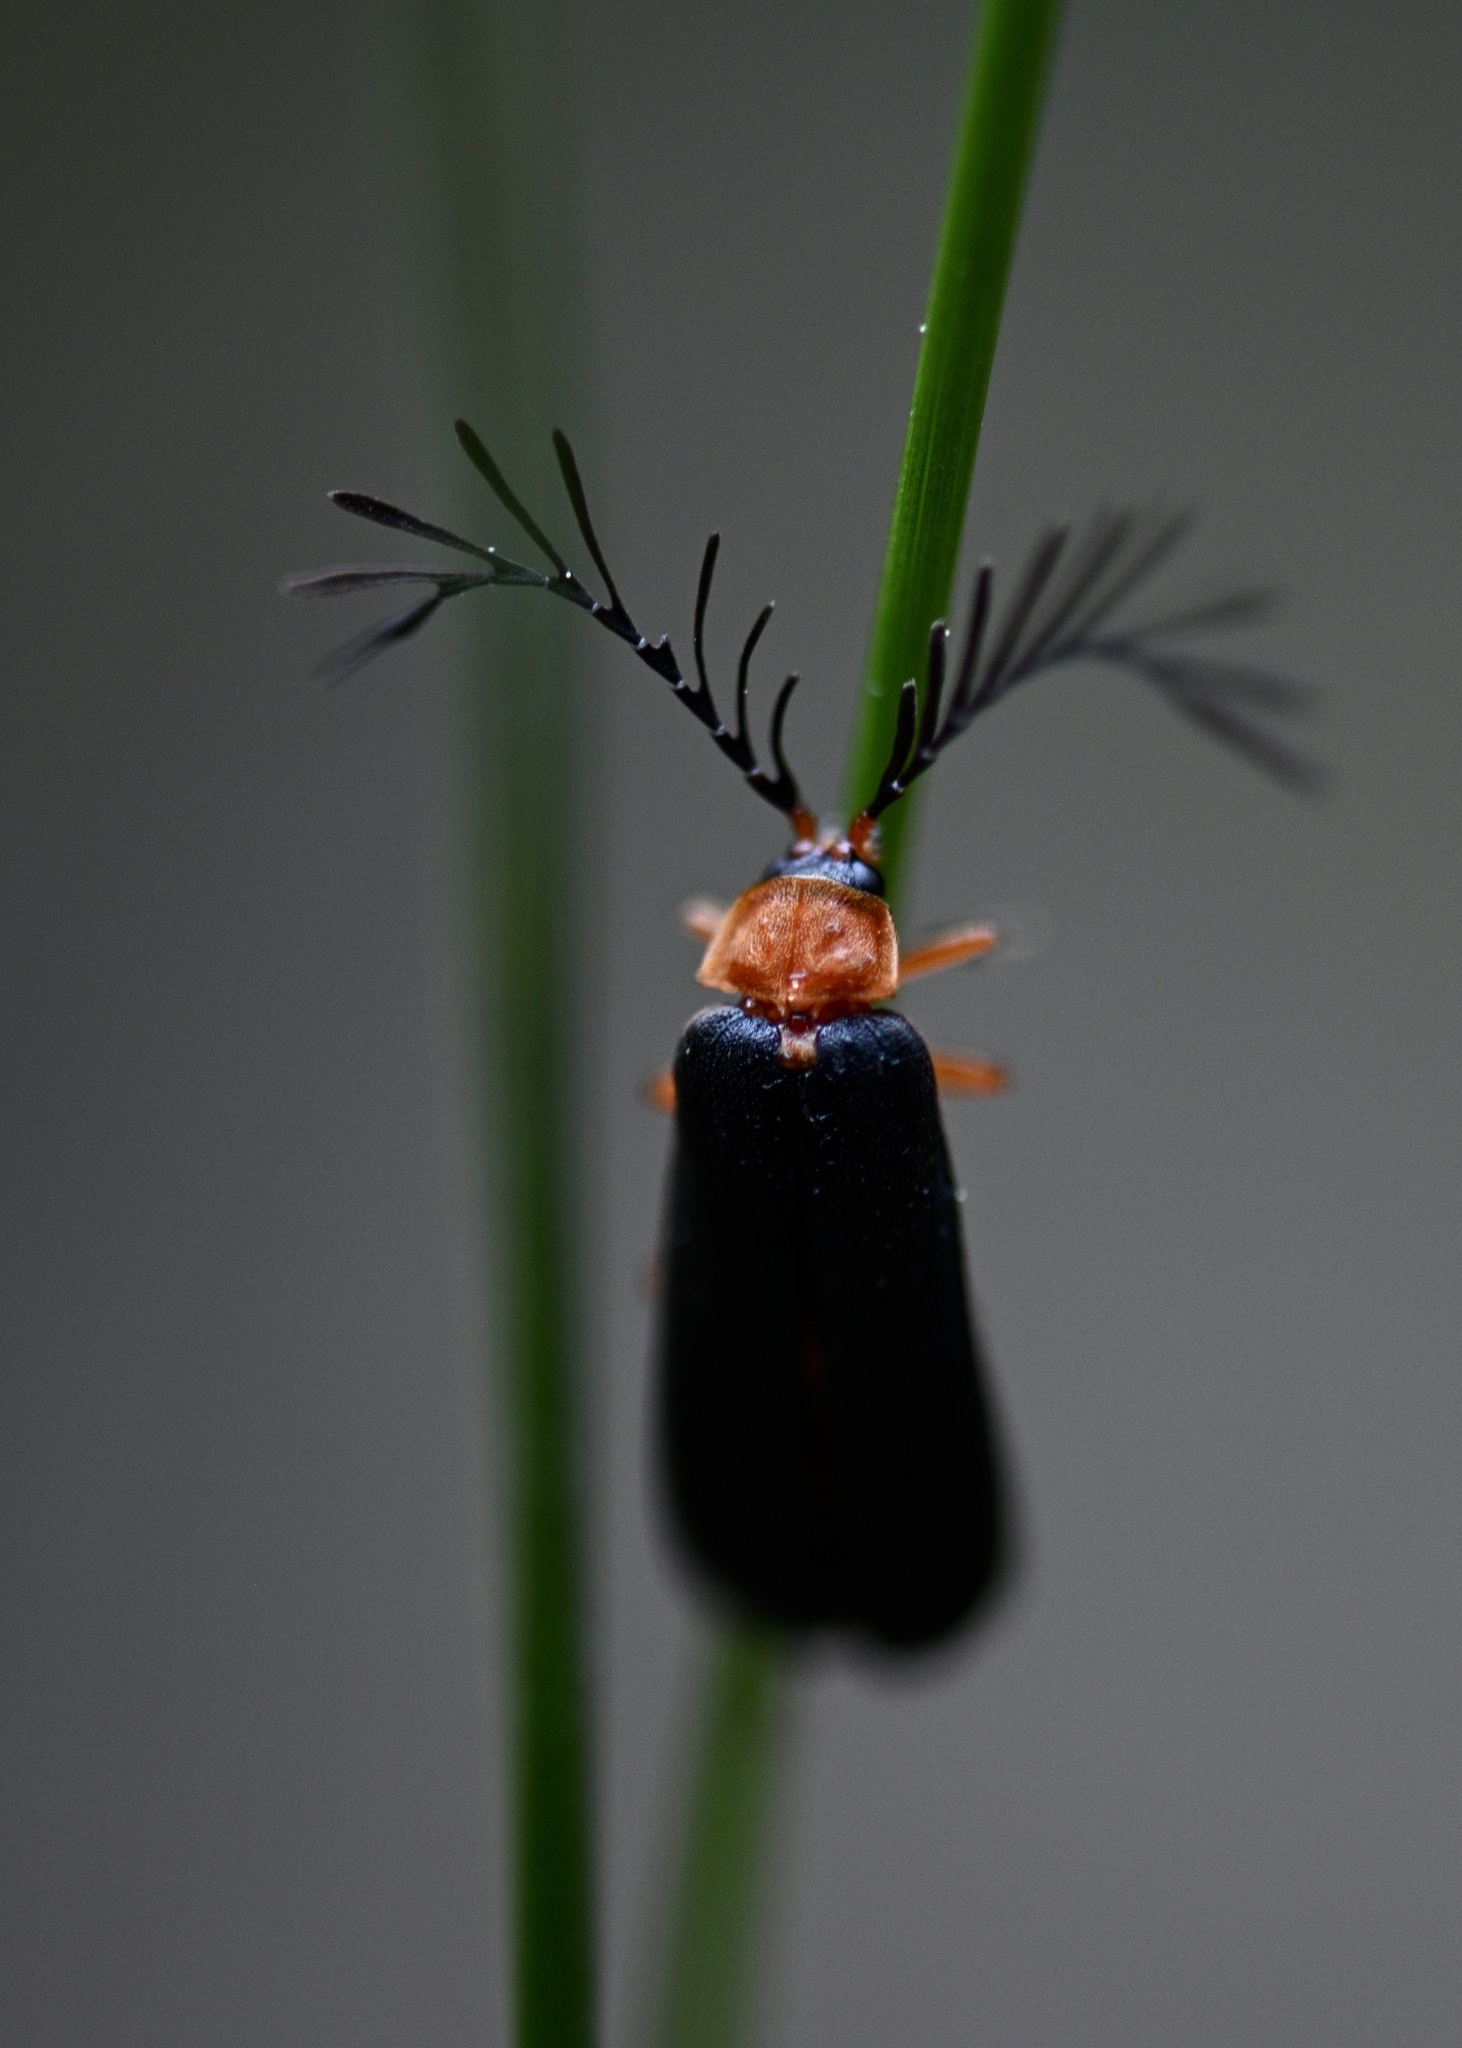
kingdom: Animalia
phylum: Arthropoda
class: Insecta
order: Coleoptera
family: Lampyridae
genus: Pterotus
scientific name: Pterotus obscuripennis
